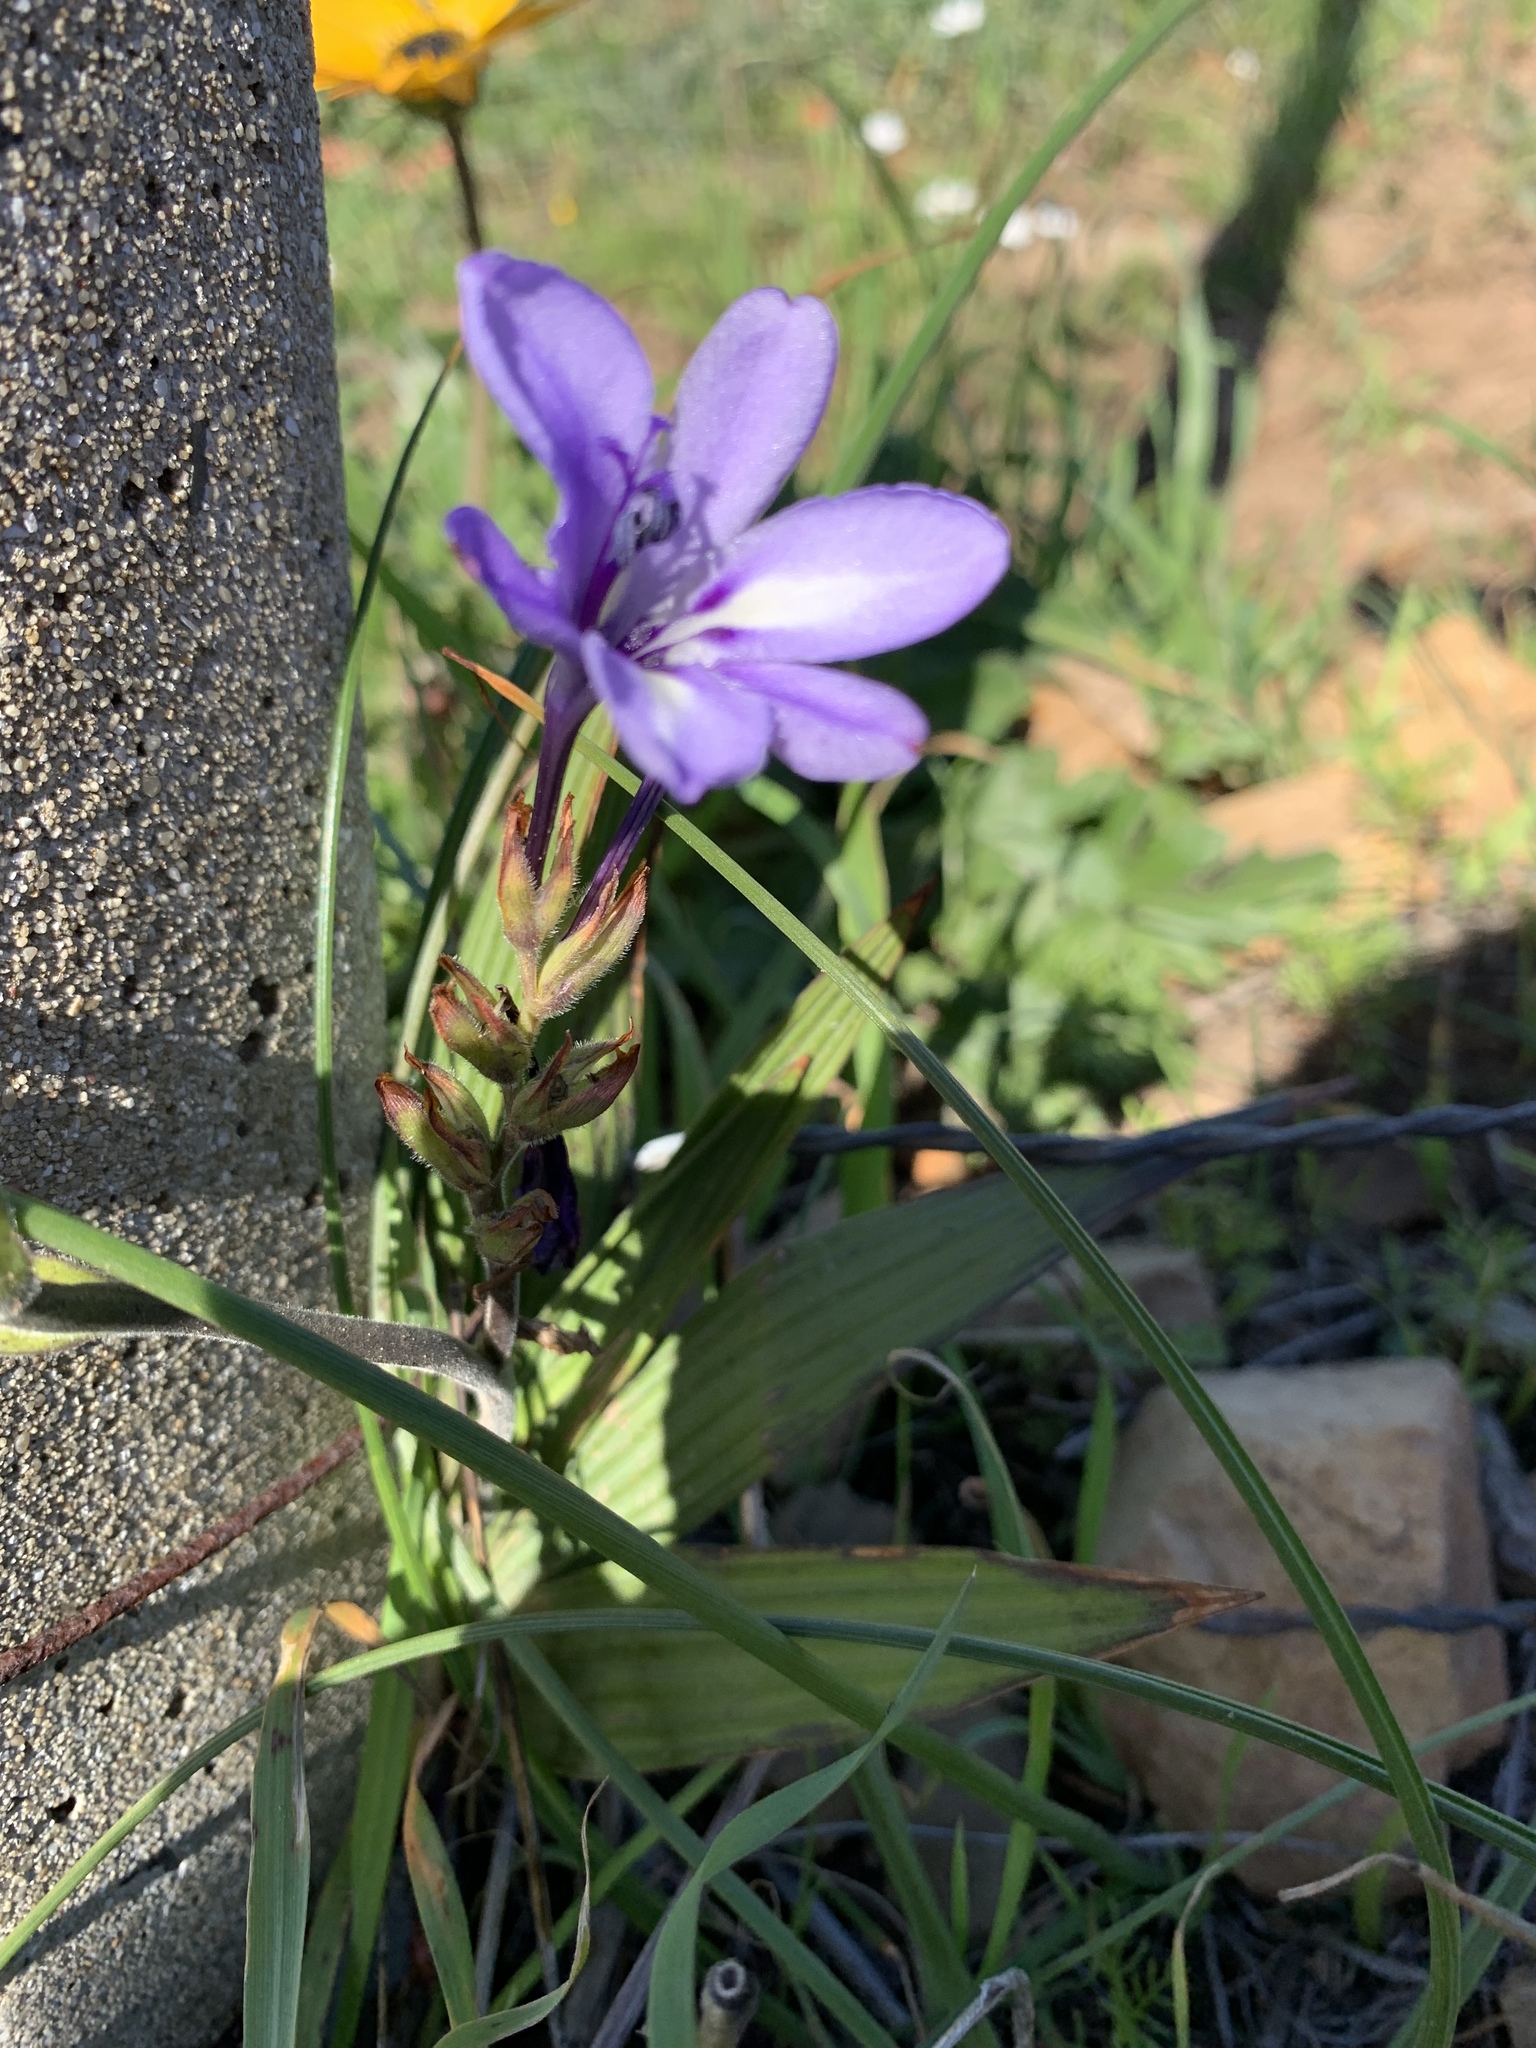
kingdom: Plantae
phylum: Tracheophyta
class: Liliopsida
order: Asparagales
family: Iridaceae
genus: Babiana
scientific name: Babiana ambigua
